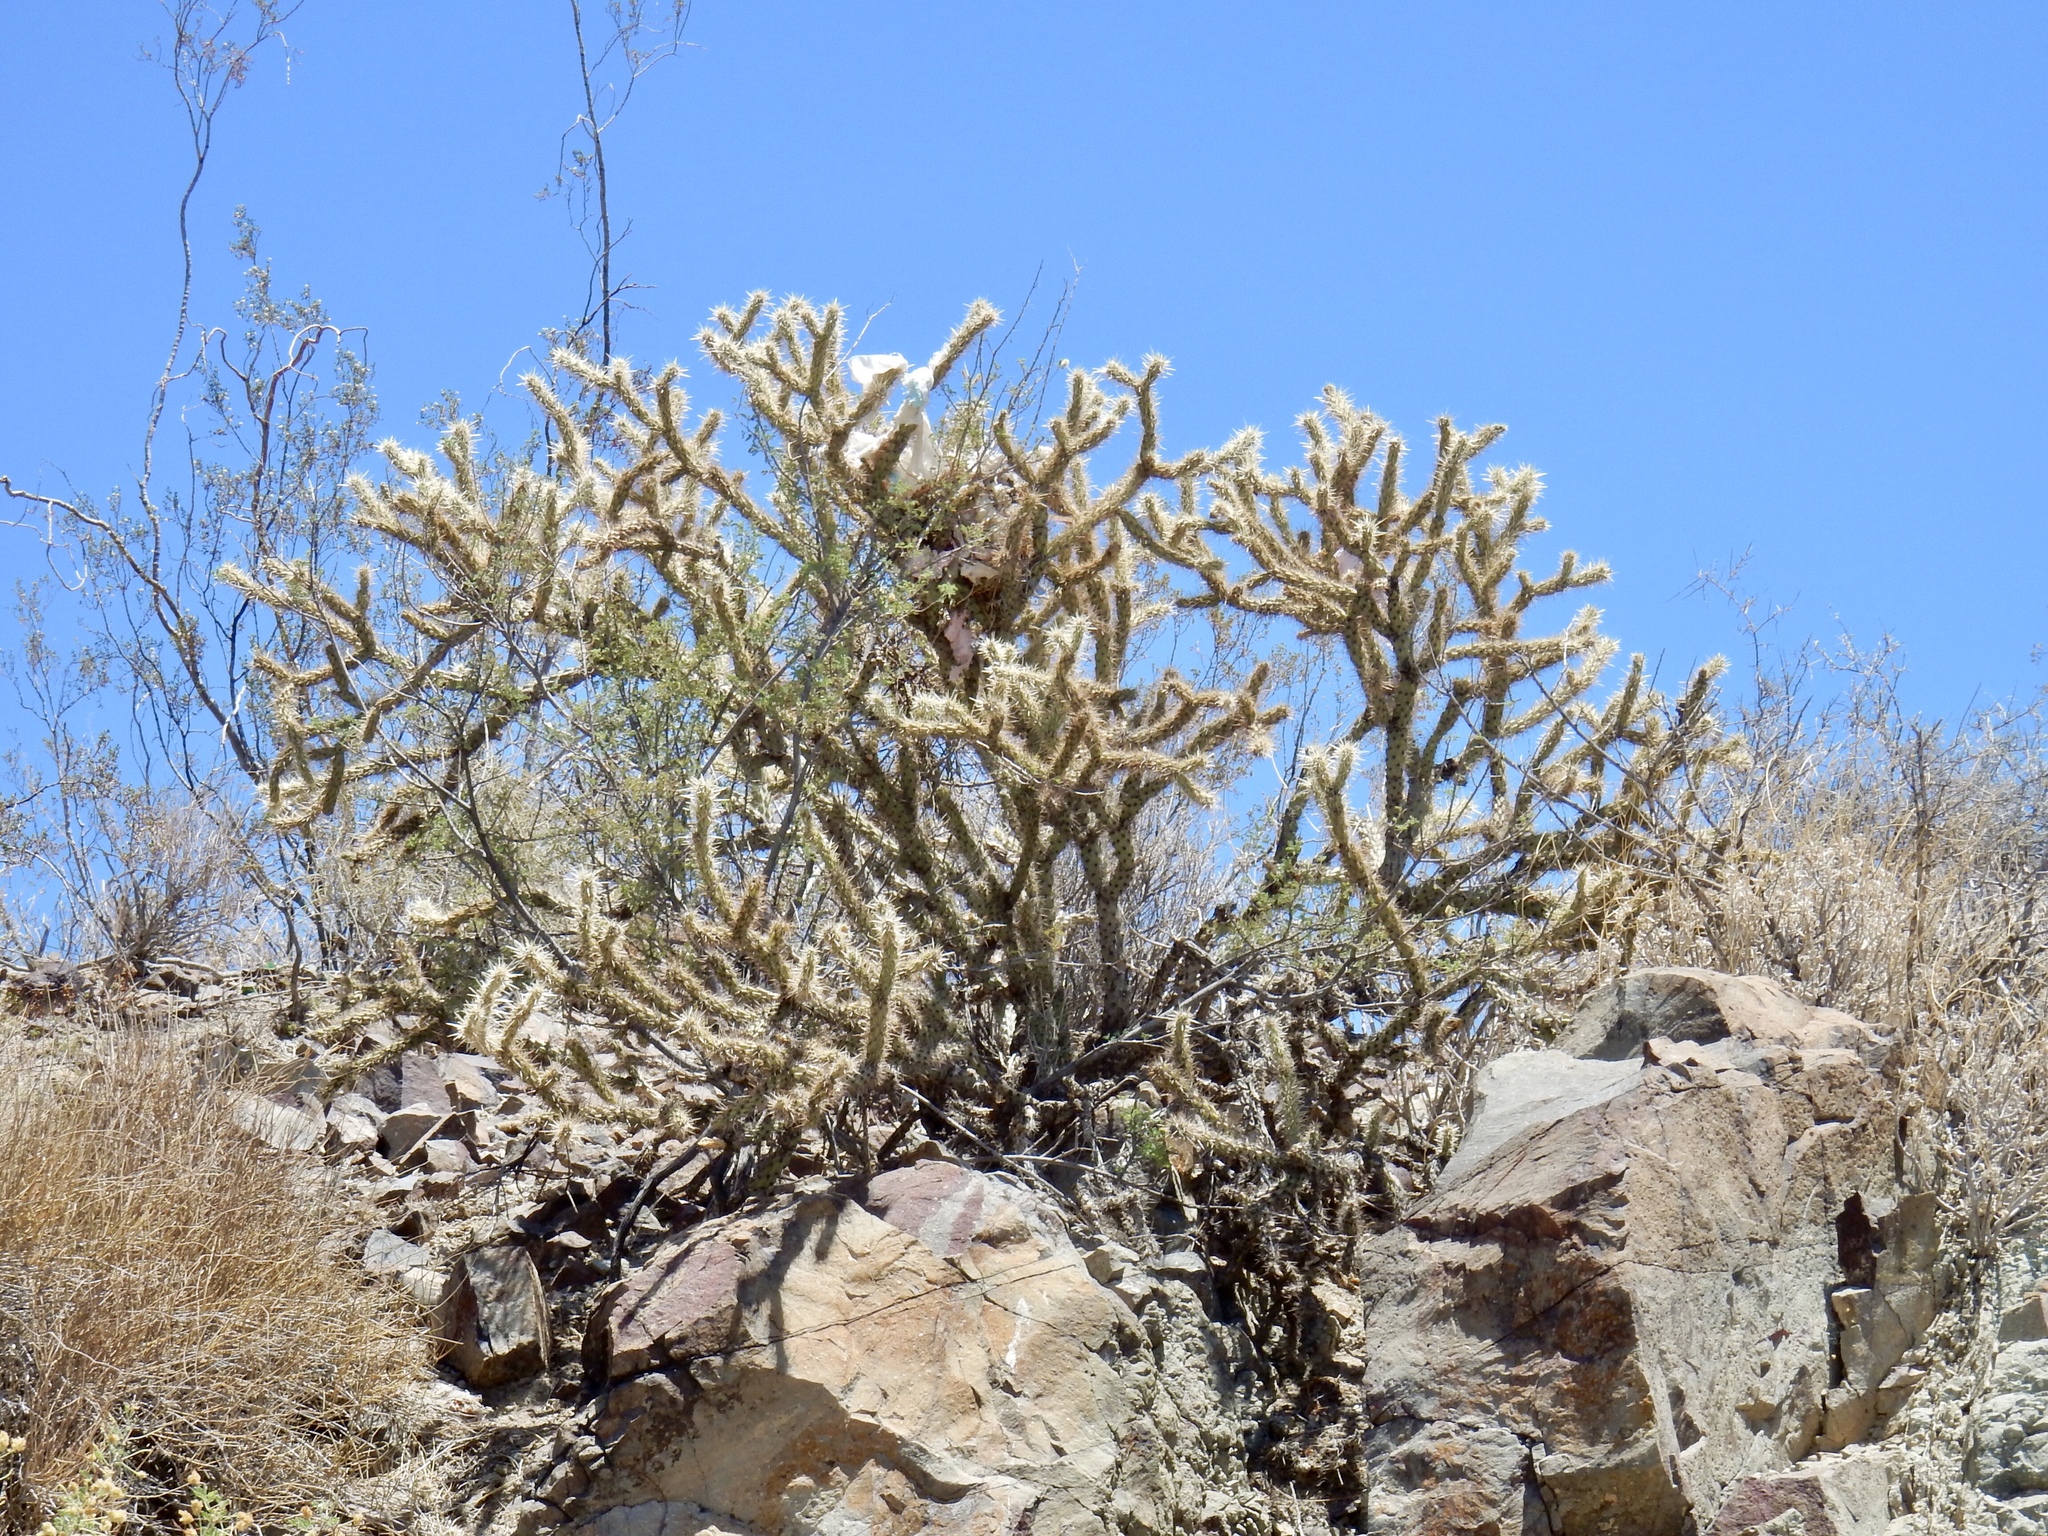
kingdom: Plantae
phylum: Tracheophyta
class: Magnoliopsida
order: Caryophyllales
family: Cactaceae
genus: Cylindropuntia
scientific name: Cylindropuntia acanthocarpa
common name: Buckhorn cholla
